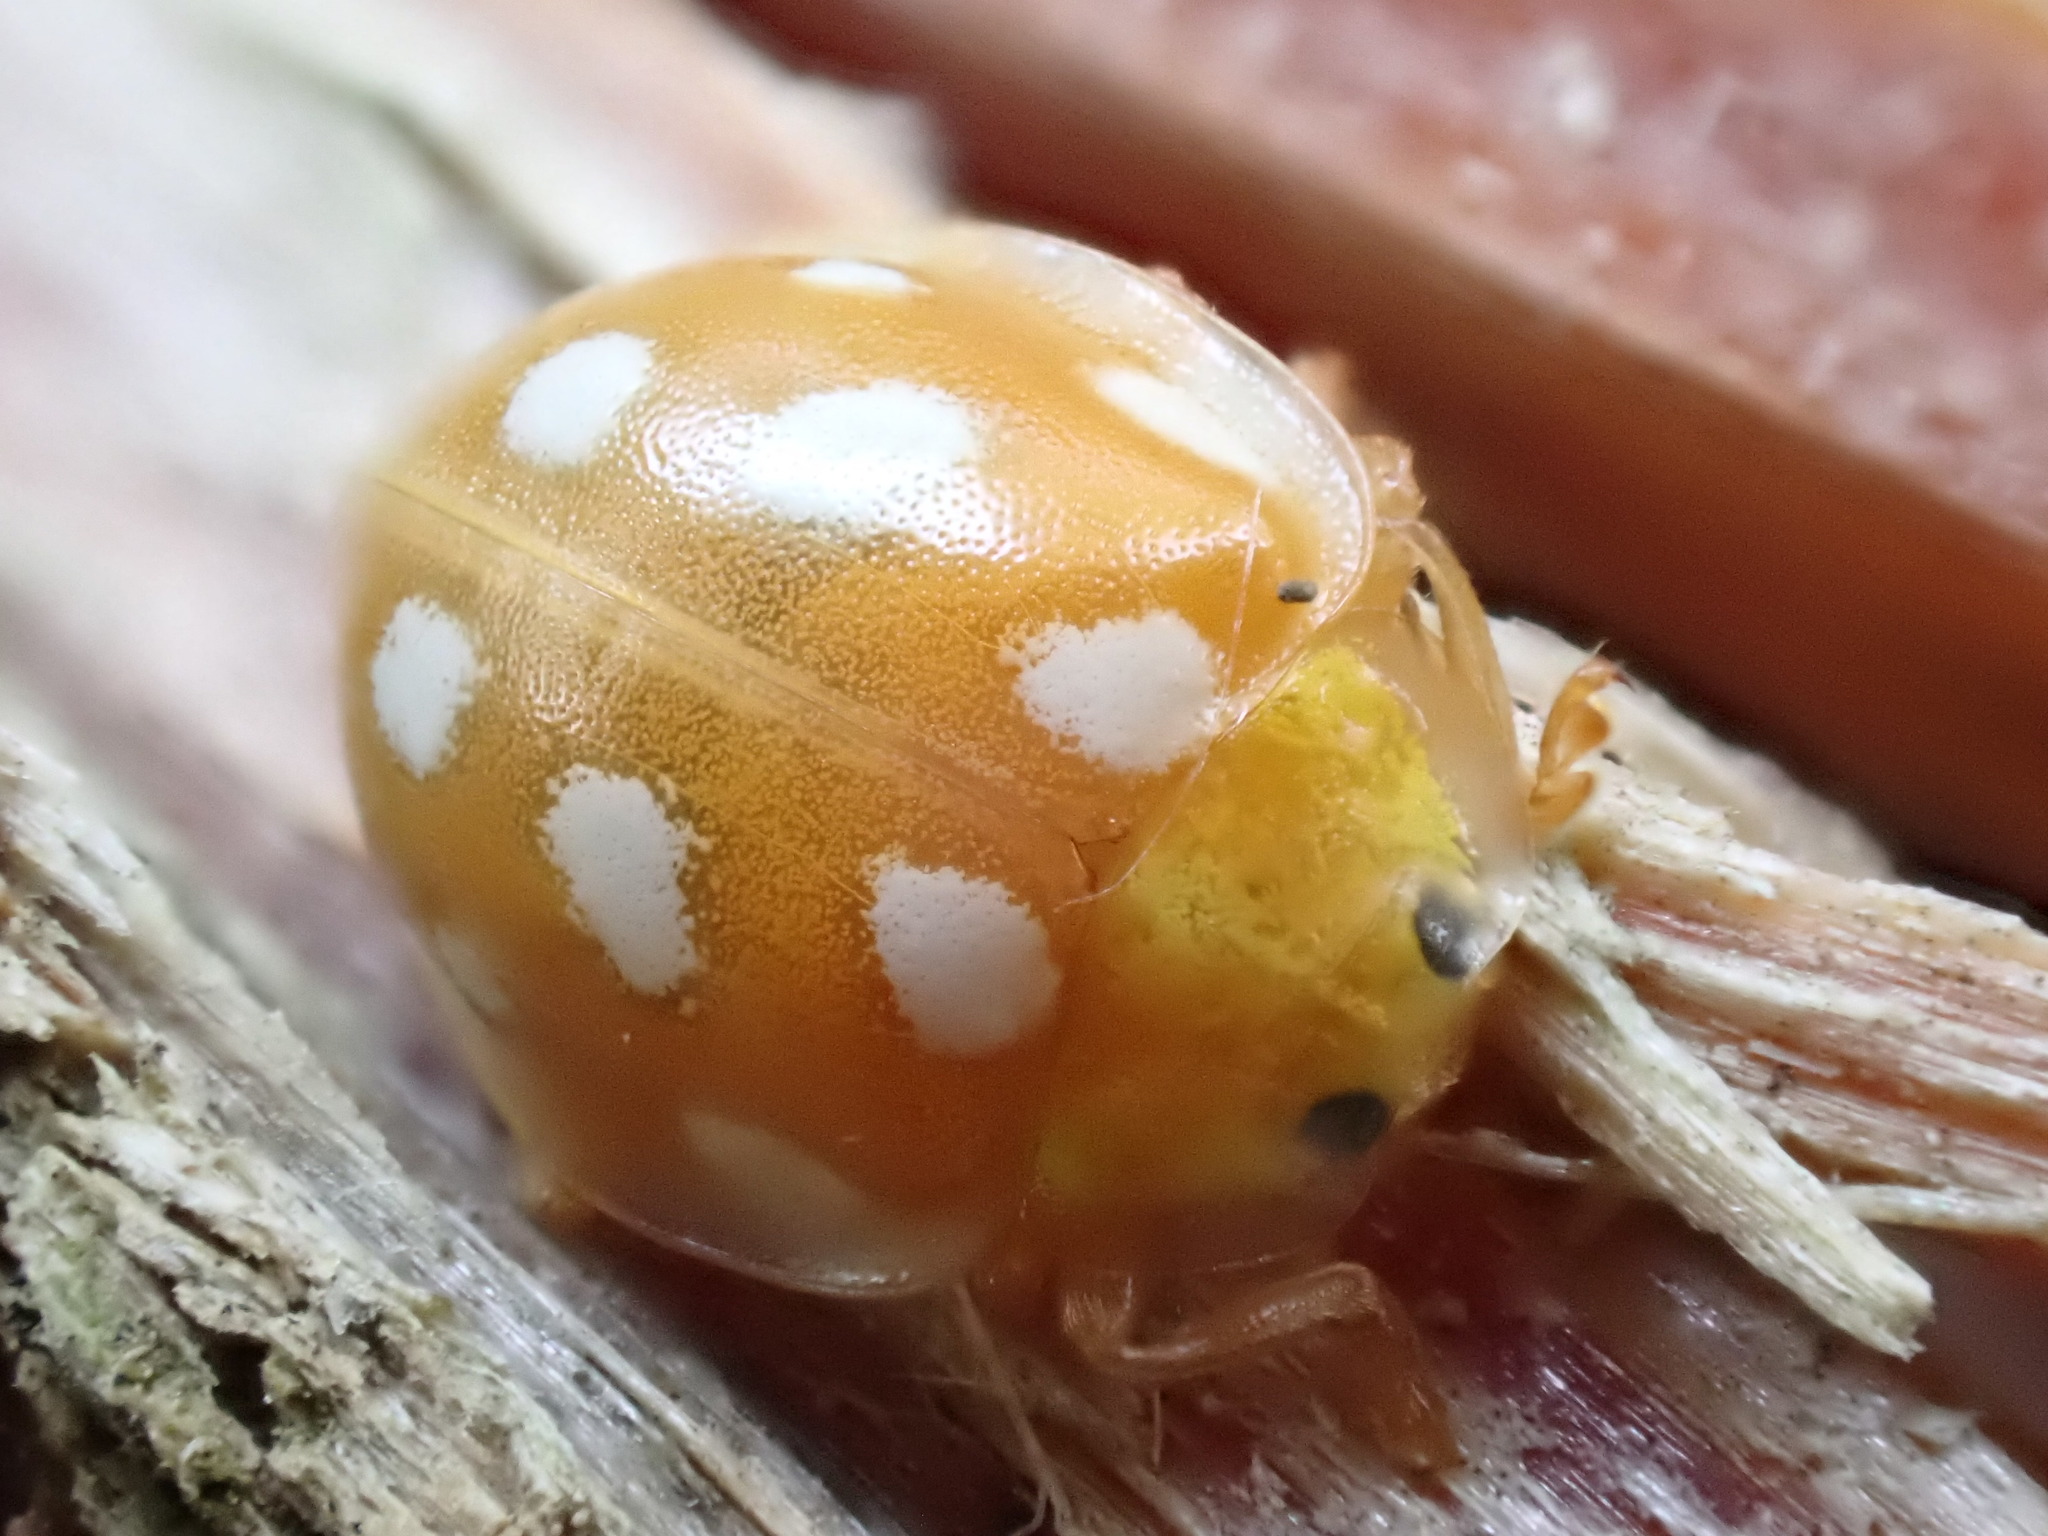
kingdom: Animalia
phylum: Arthropoda
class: Insecta
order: Coleoptera
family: Coccinellidae
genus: Halyzia
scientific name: Halyzia sedecimguttata
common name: Orange ladybird
